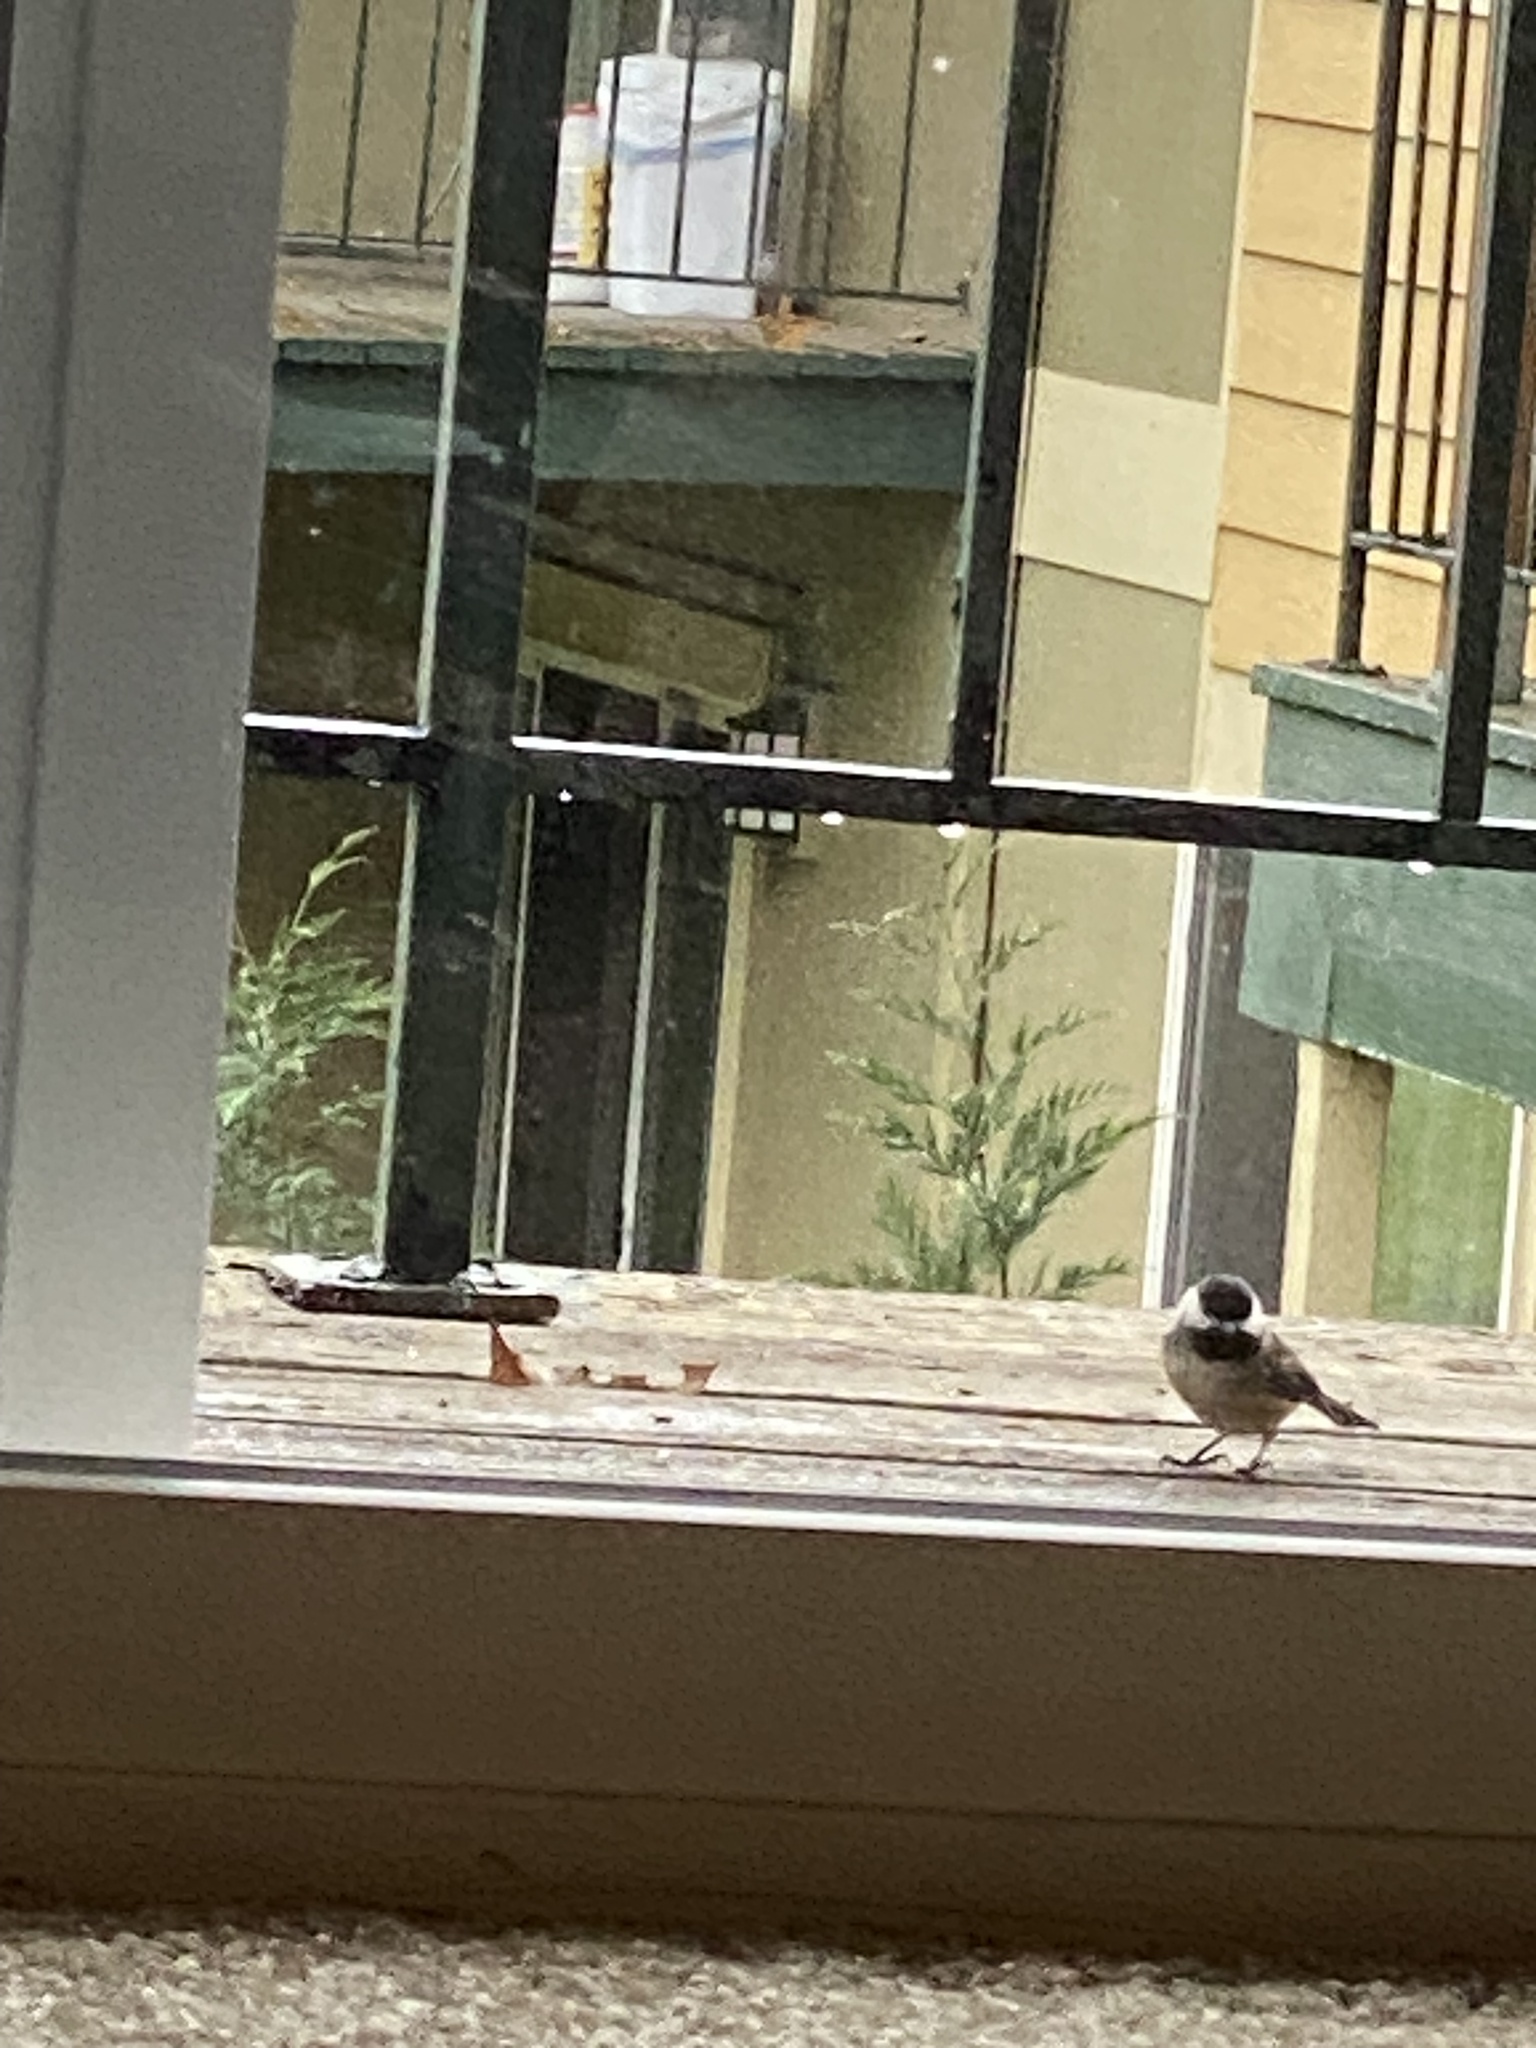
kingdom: Animalia
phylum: Chordata
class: Aves
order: Passeriformes
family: Paridae
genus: Poecile
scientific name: Poecile atricapillus
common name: Black-capped chickadee
